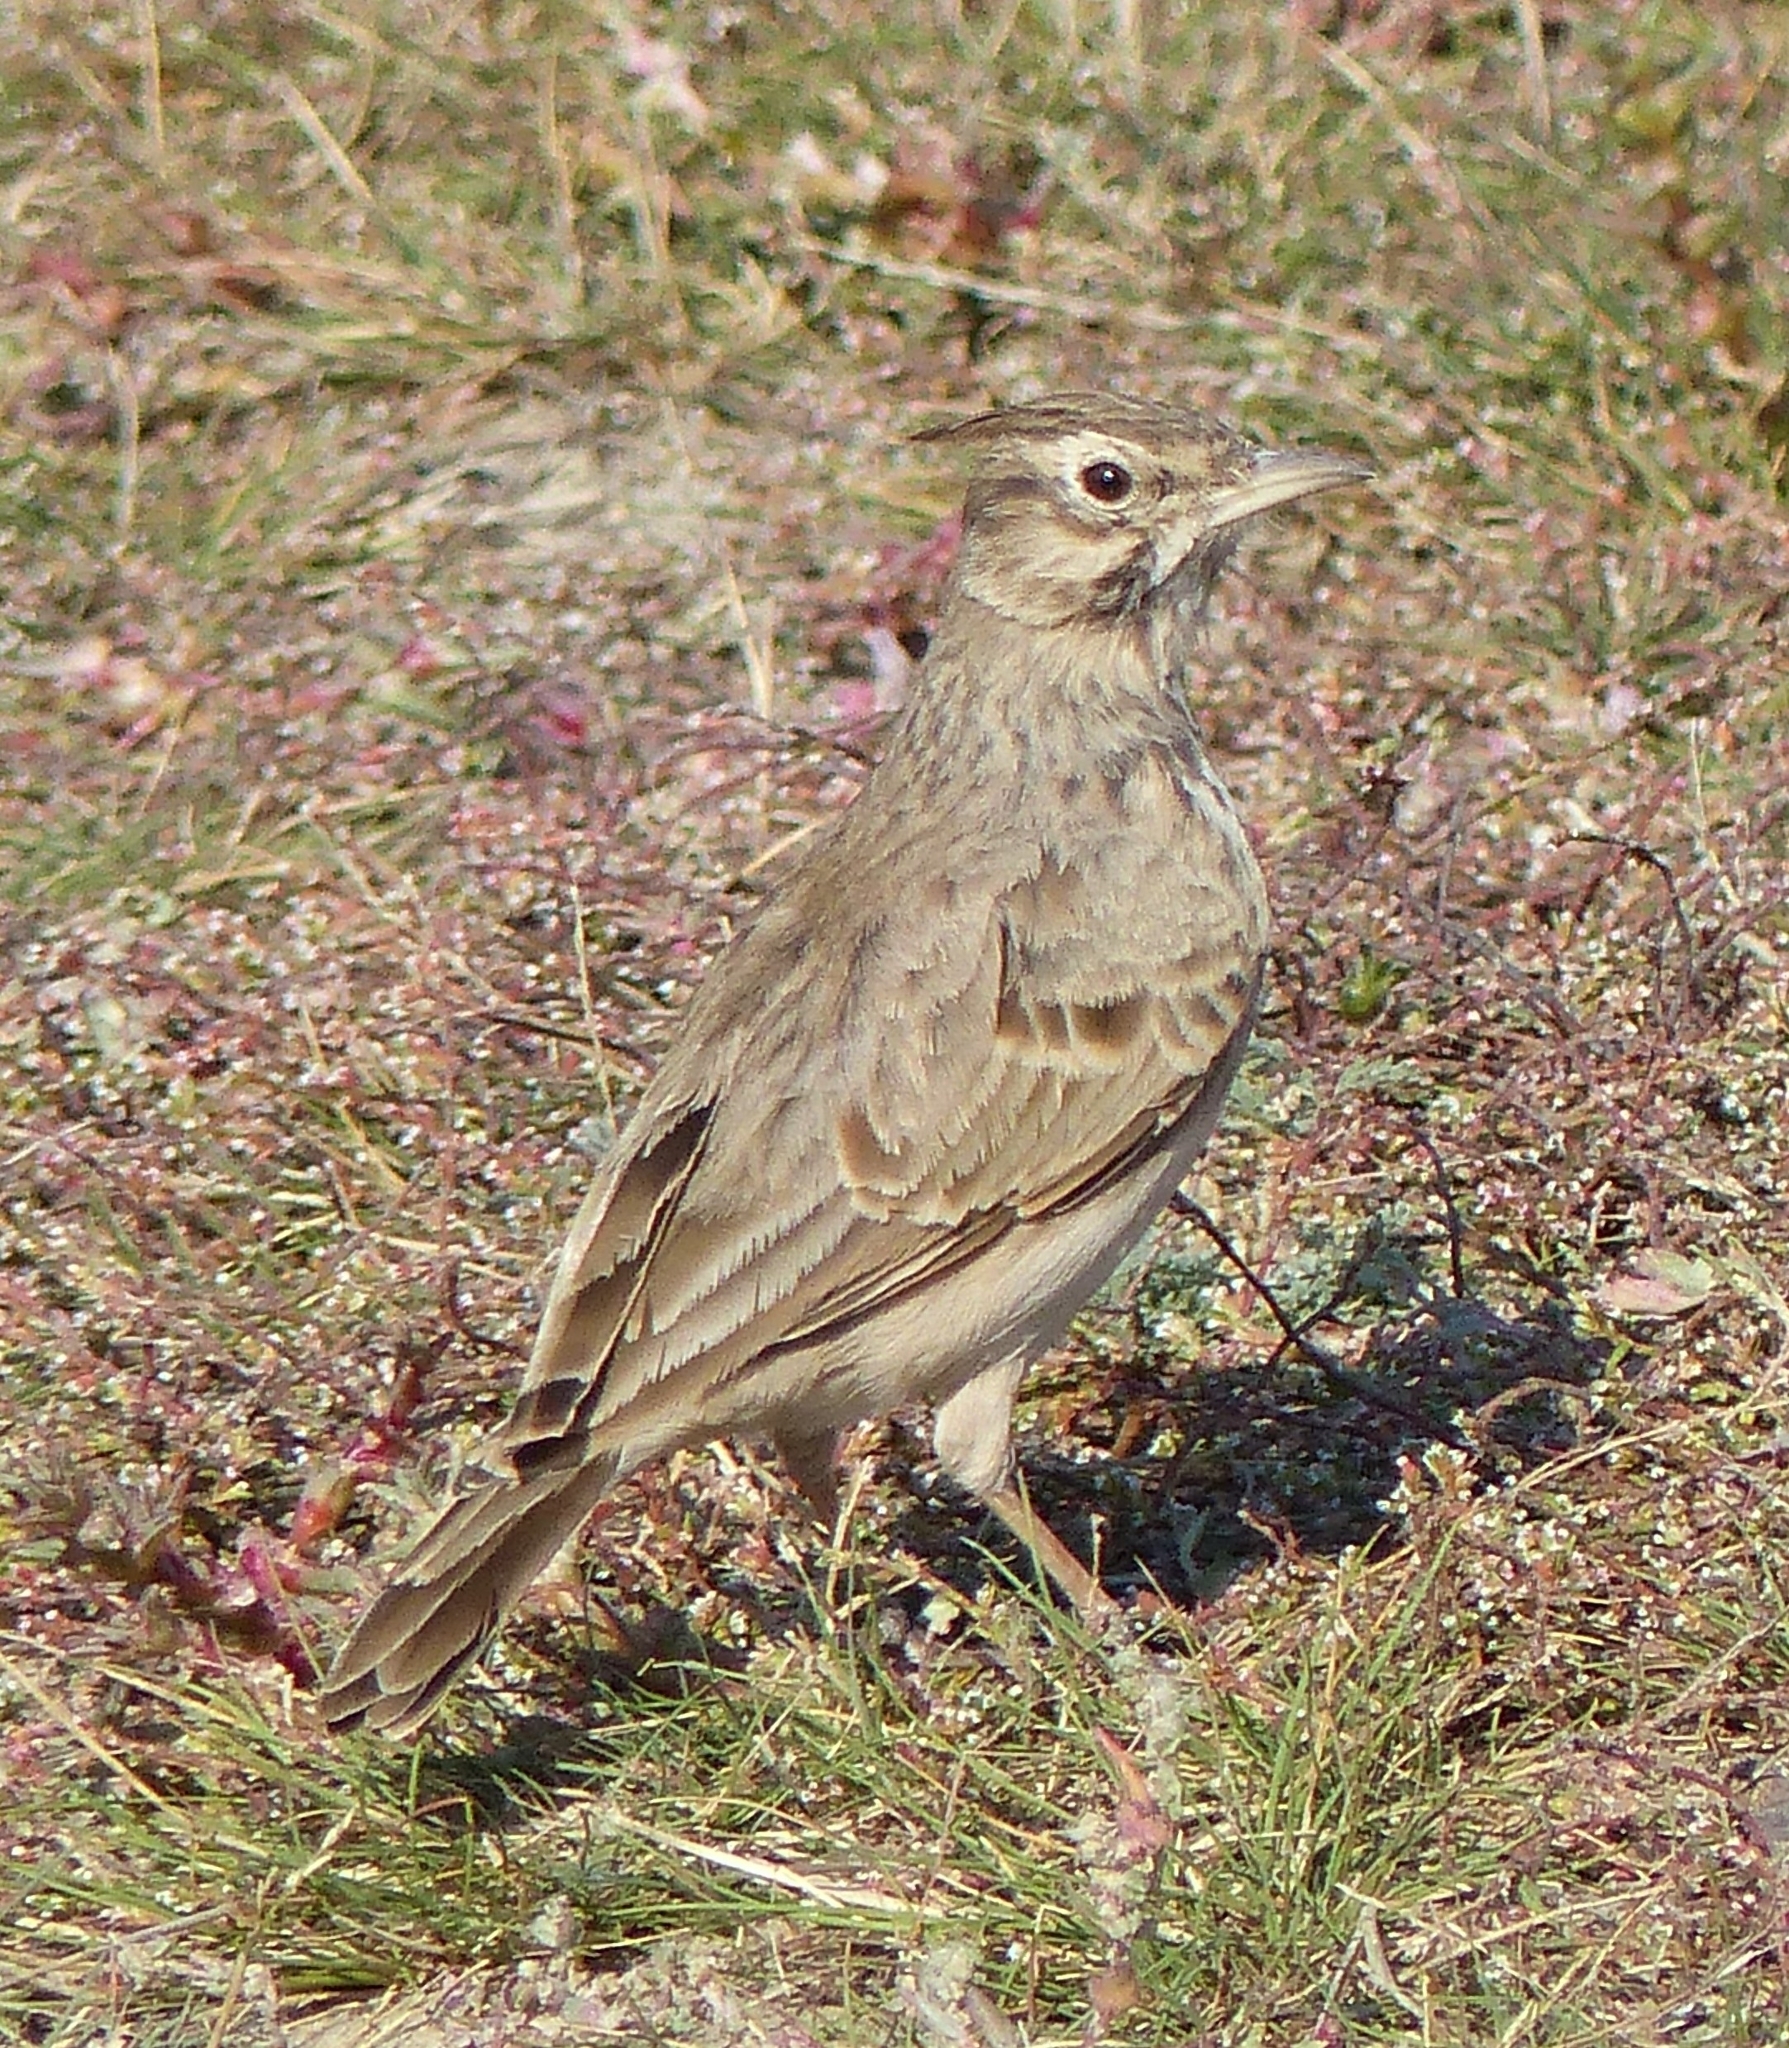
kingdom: Animalia
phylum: Chordata
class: Aves
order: Passeriformes
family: Alaudidae
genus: Galerida
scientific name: Galerida cristata
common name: Crested lark
